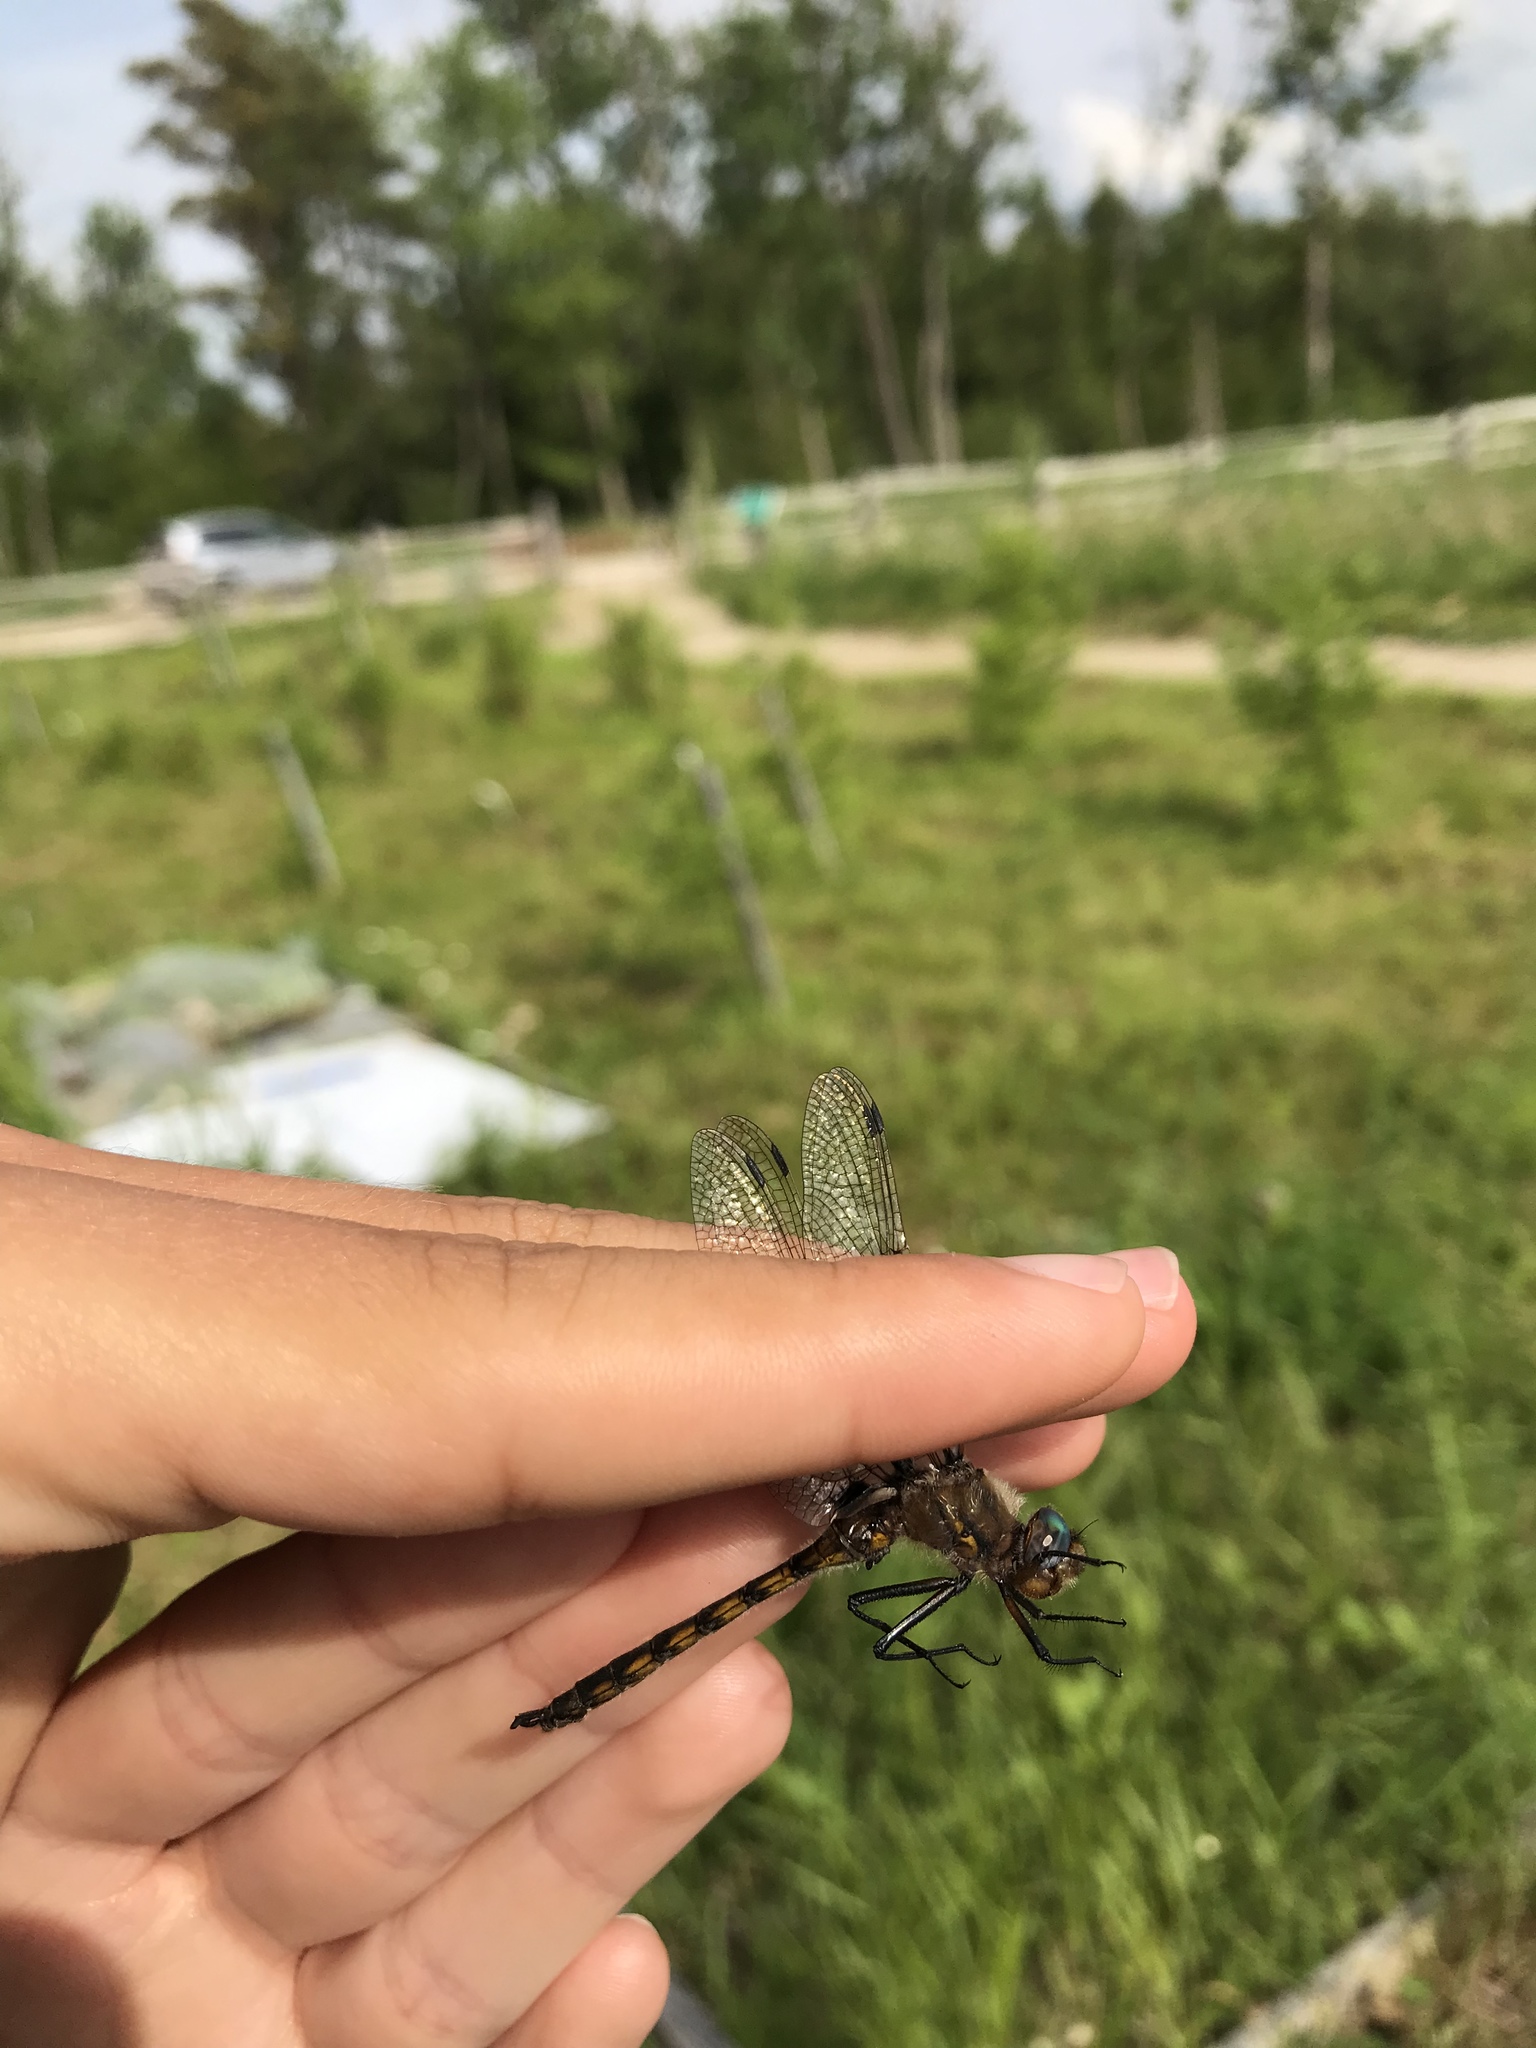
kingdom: Animalia
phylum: Arthropoda
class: Insecta
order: Odonata
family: Corduliidae
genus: Epitheca
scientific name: Epitheca canis
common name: Beaverpond baskettail
